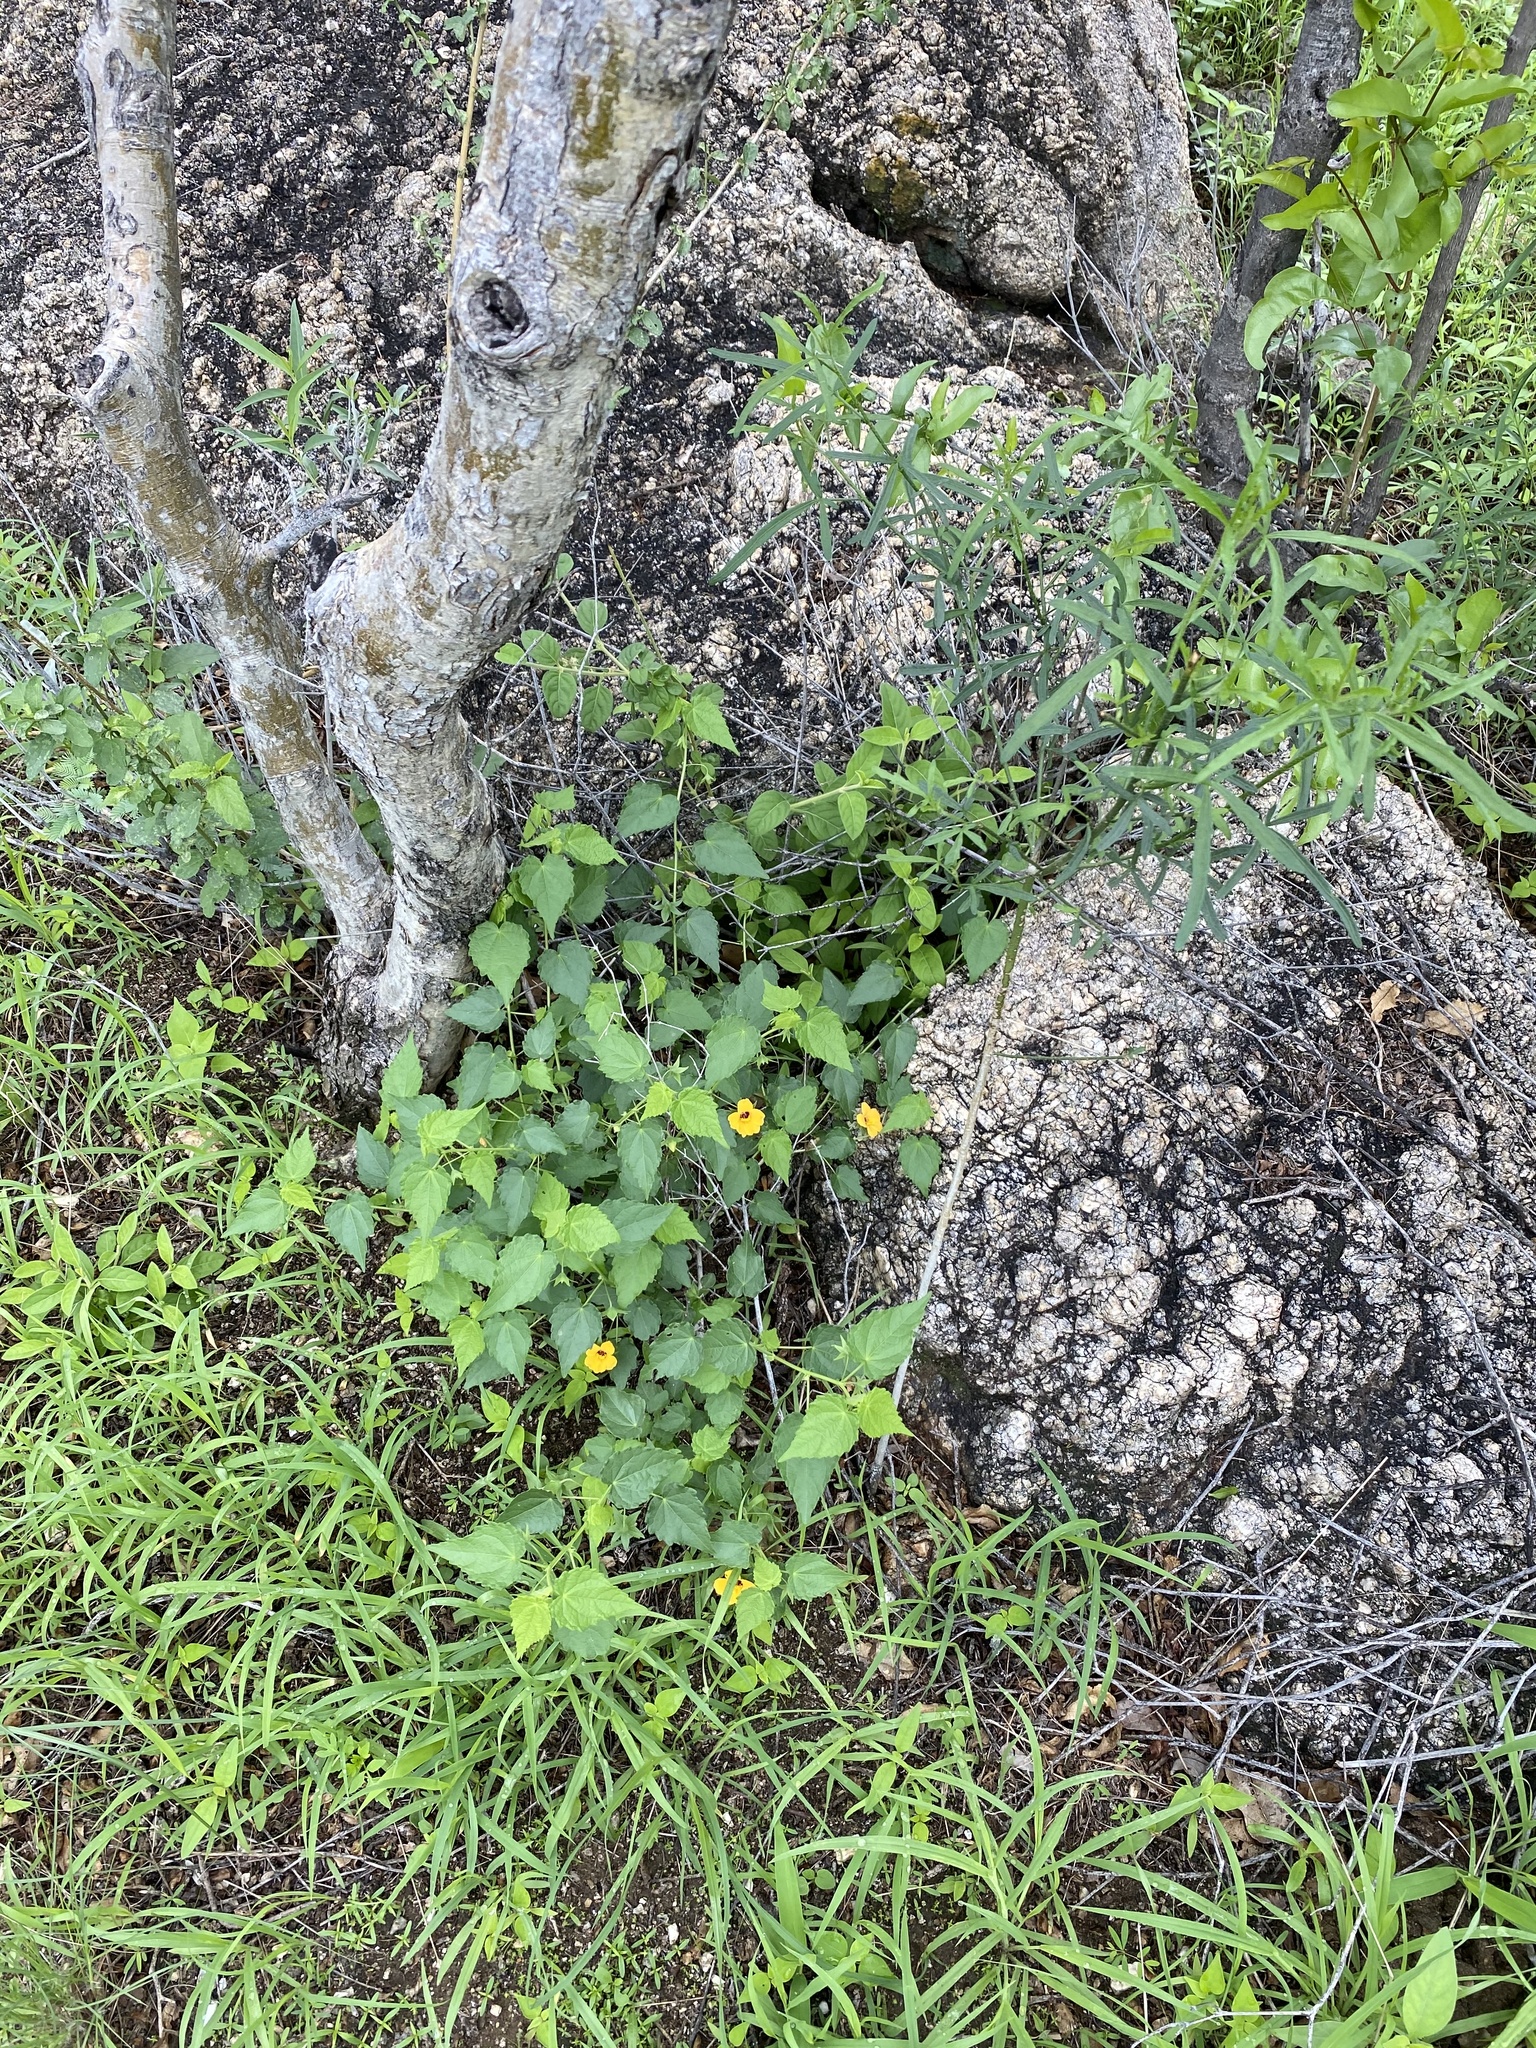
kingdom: Plantae
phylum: Tracheophyta
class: Magnoliopsida
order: Malvales
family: Malvaceae
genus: Pavonia
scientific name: Pavonia procumbens
